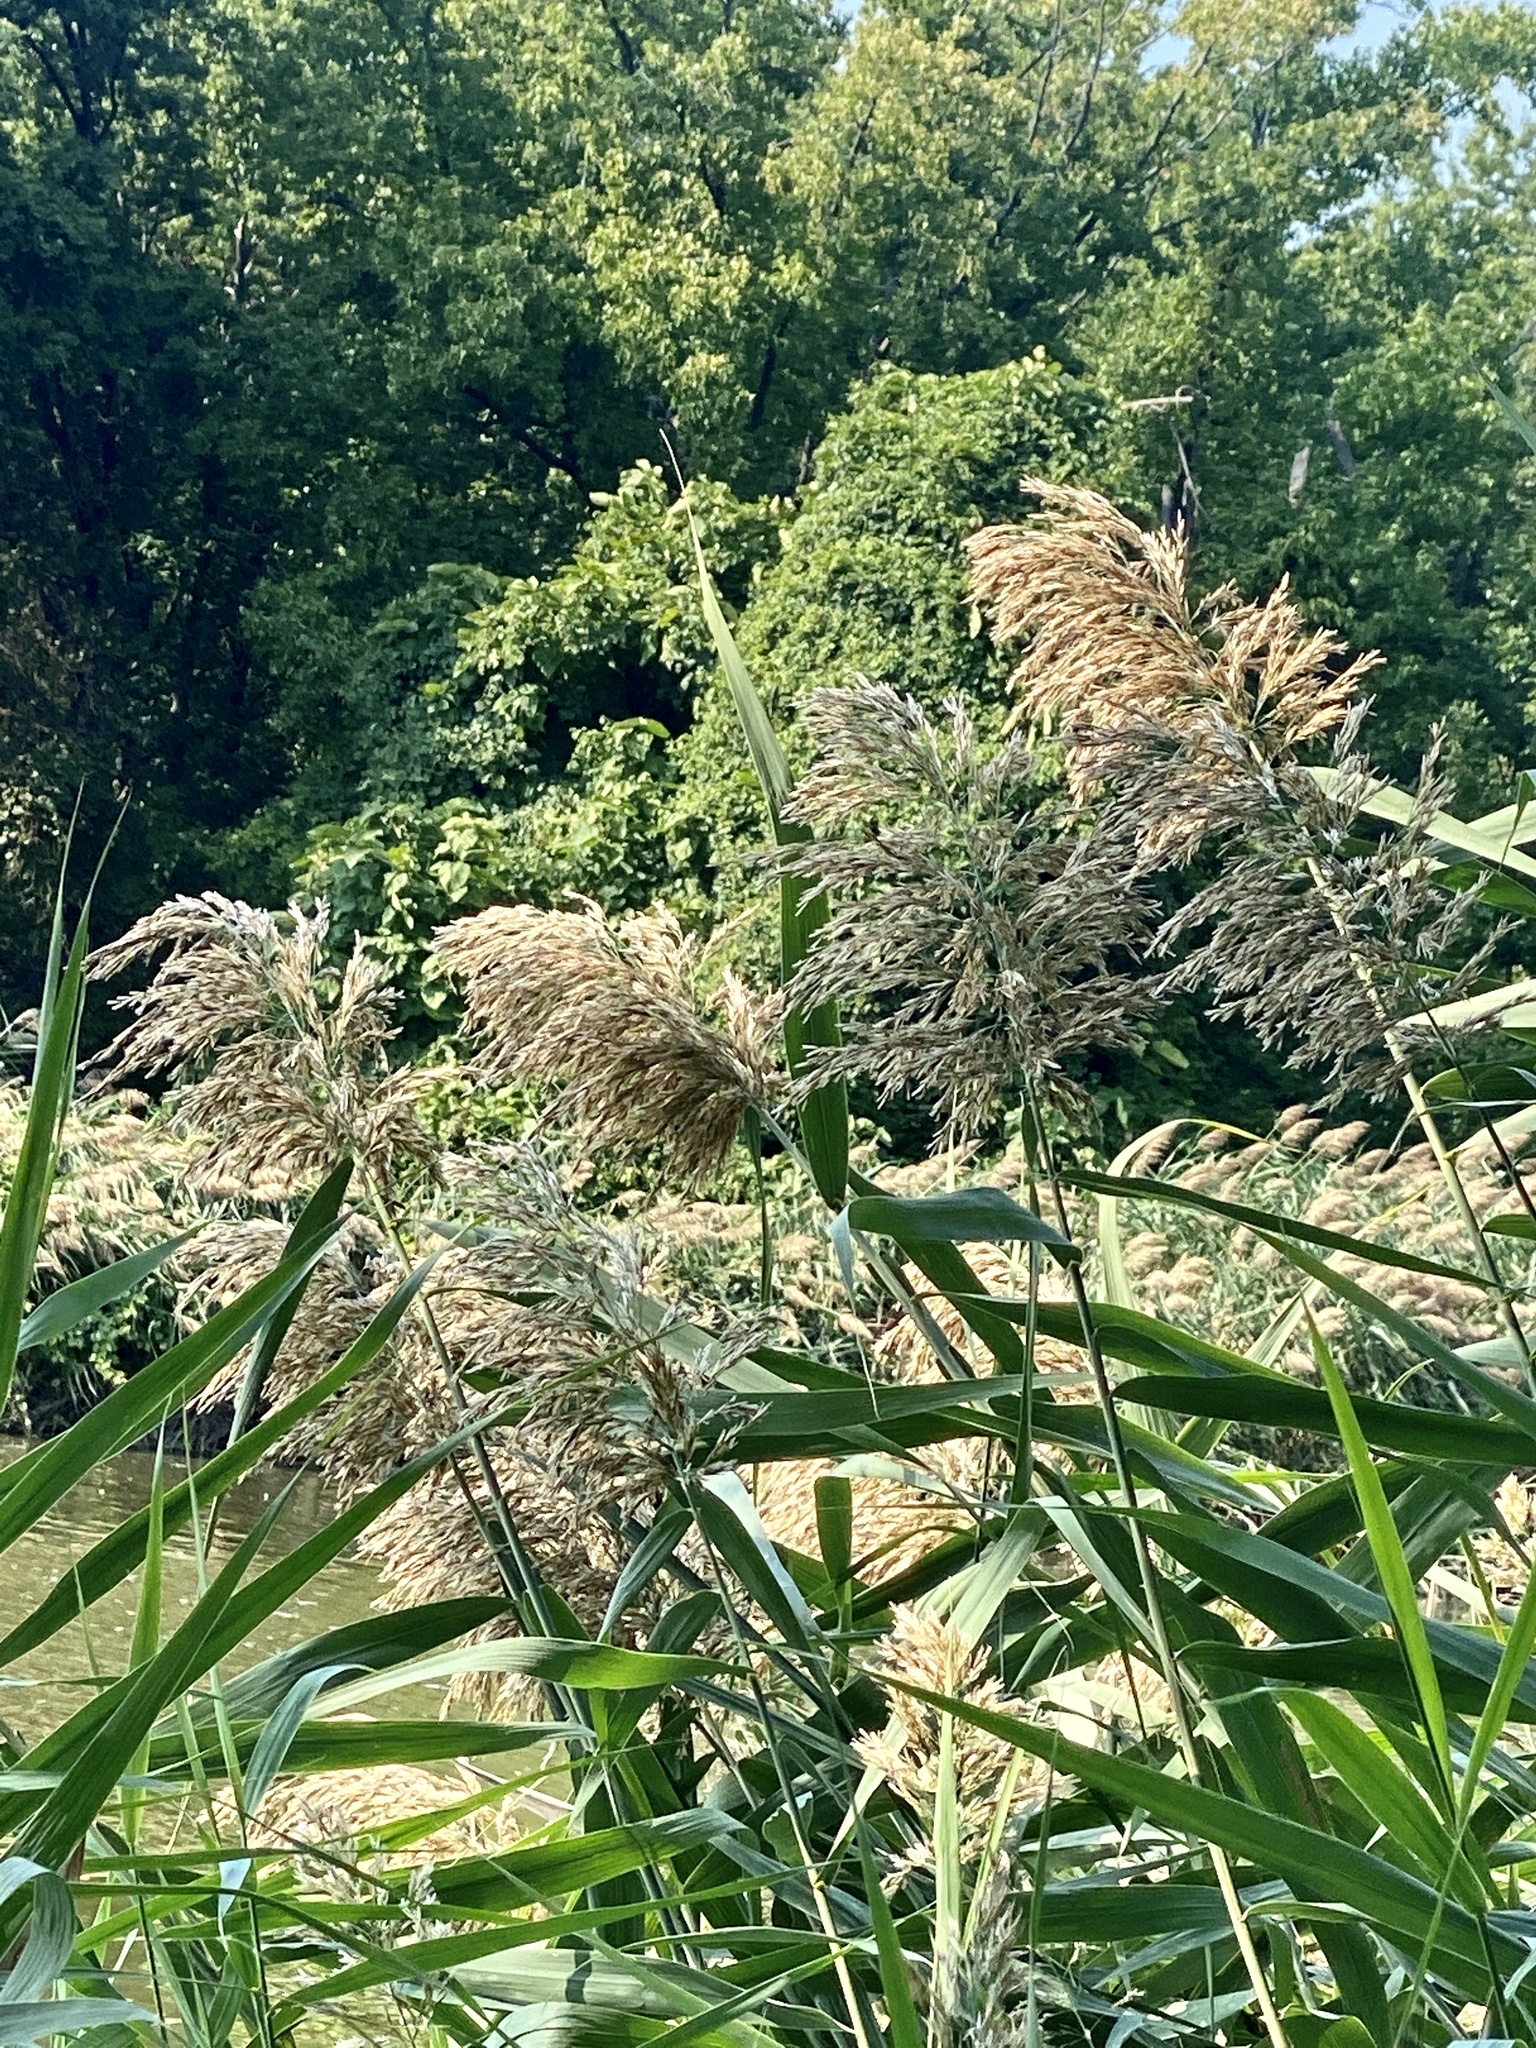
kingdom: Plantae
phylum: Tracheophyta
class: Liliopsida
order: Poales
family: Poaceae
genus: Phragmites
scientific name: Phragmites australis
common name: Common reed
